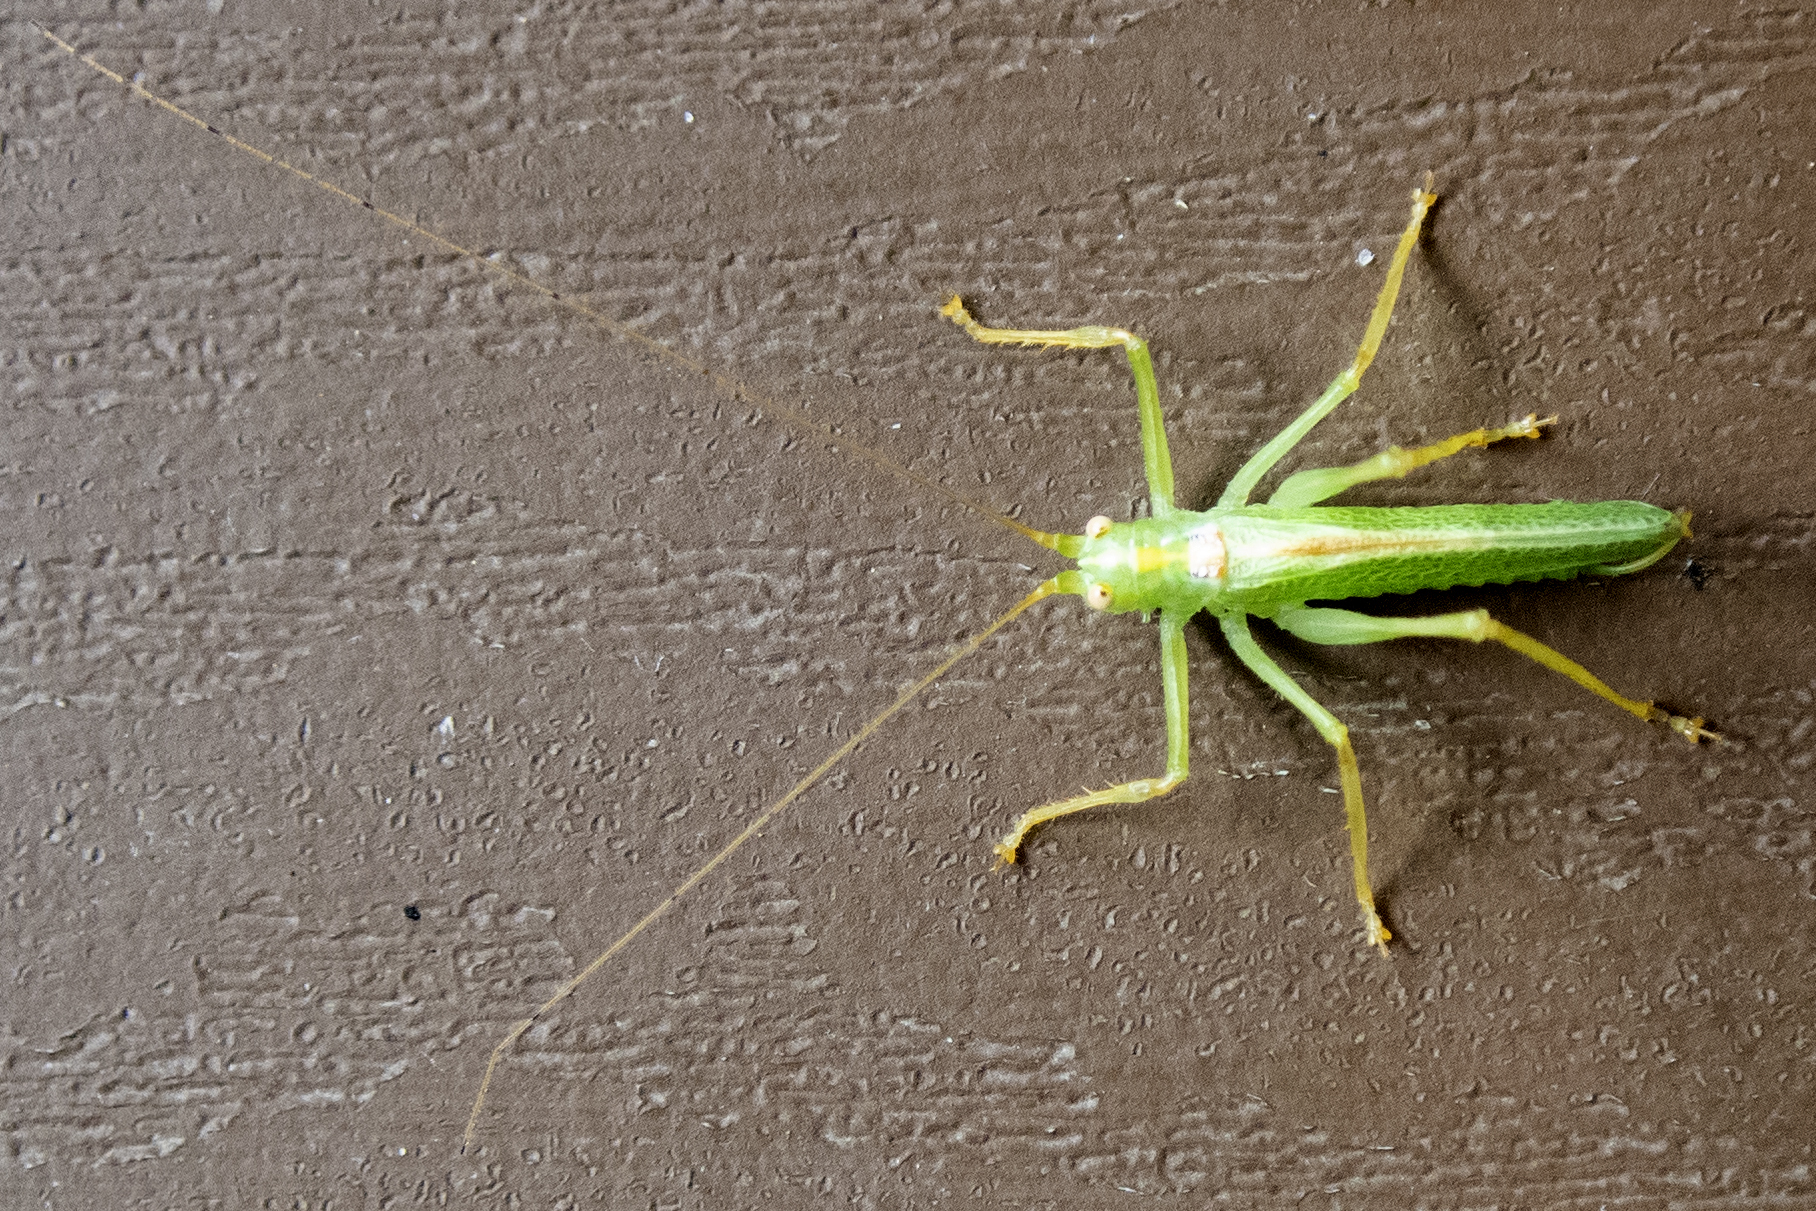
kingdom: Animalia
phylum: Arthropoda
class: Insecta
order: Orthoptera
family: Tettigoniidae
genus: Meconema
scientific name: Meconema thalassinum
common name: Oak bush-cricket
